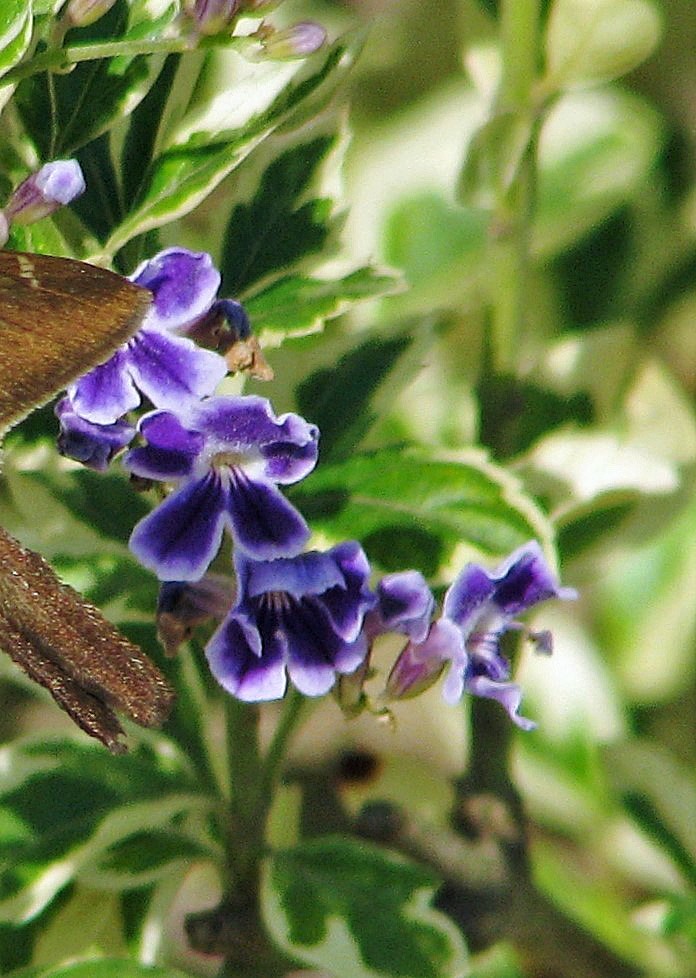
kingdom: Plantae
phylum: Tracheophyta
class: Magnoliopsida
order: Lamiales
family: Verbenaceae
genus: Duranta
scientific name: Duranta erecta
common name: Golden dewdrops
